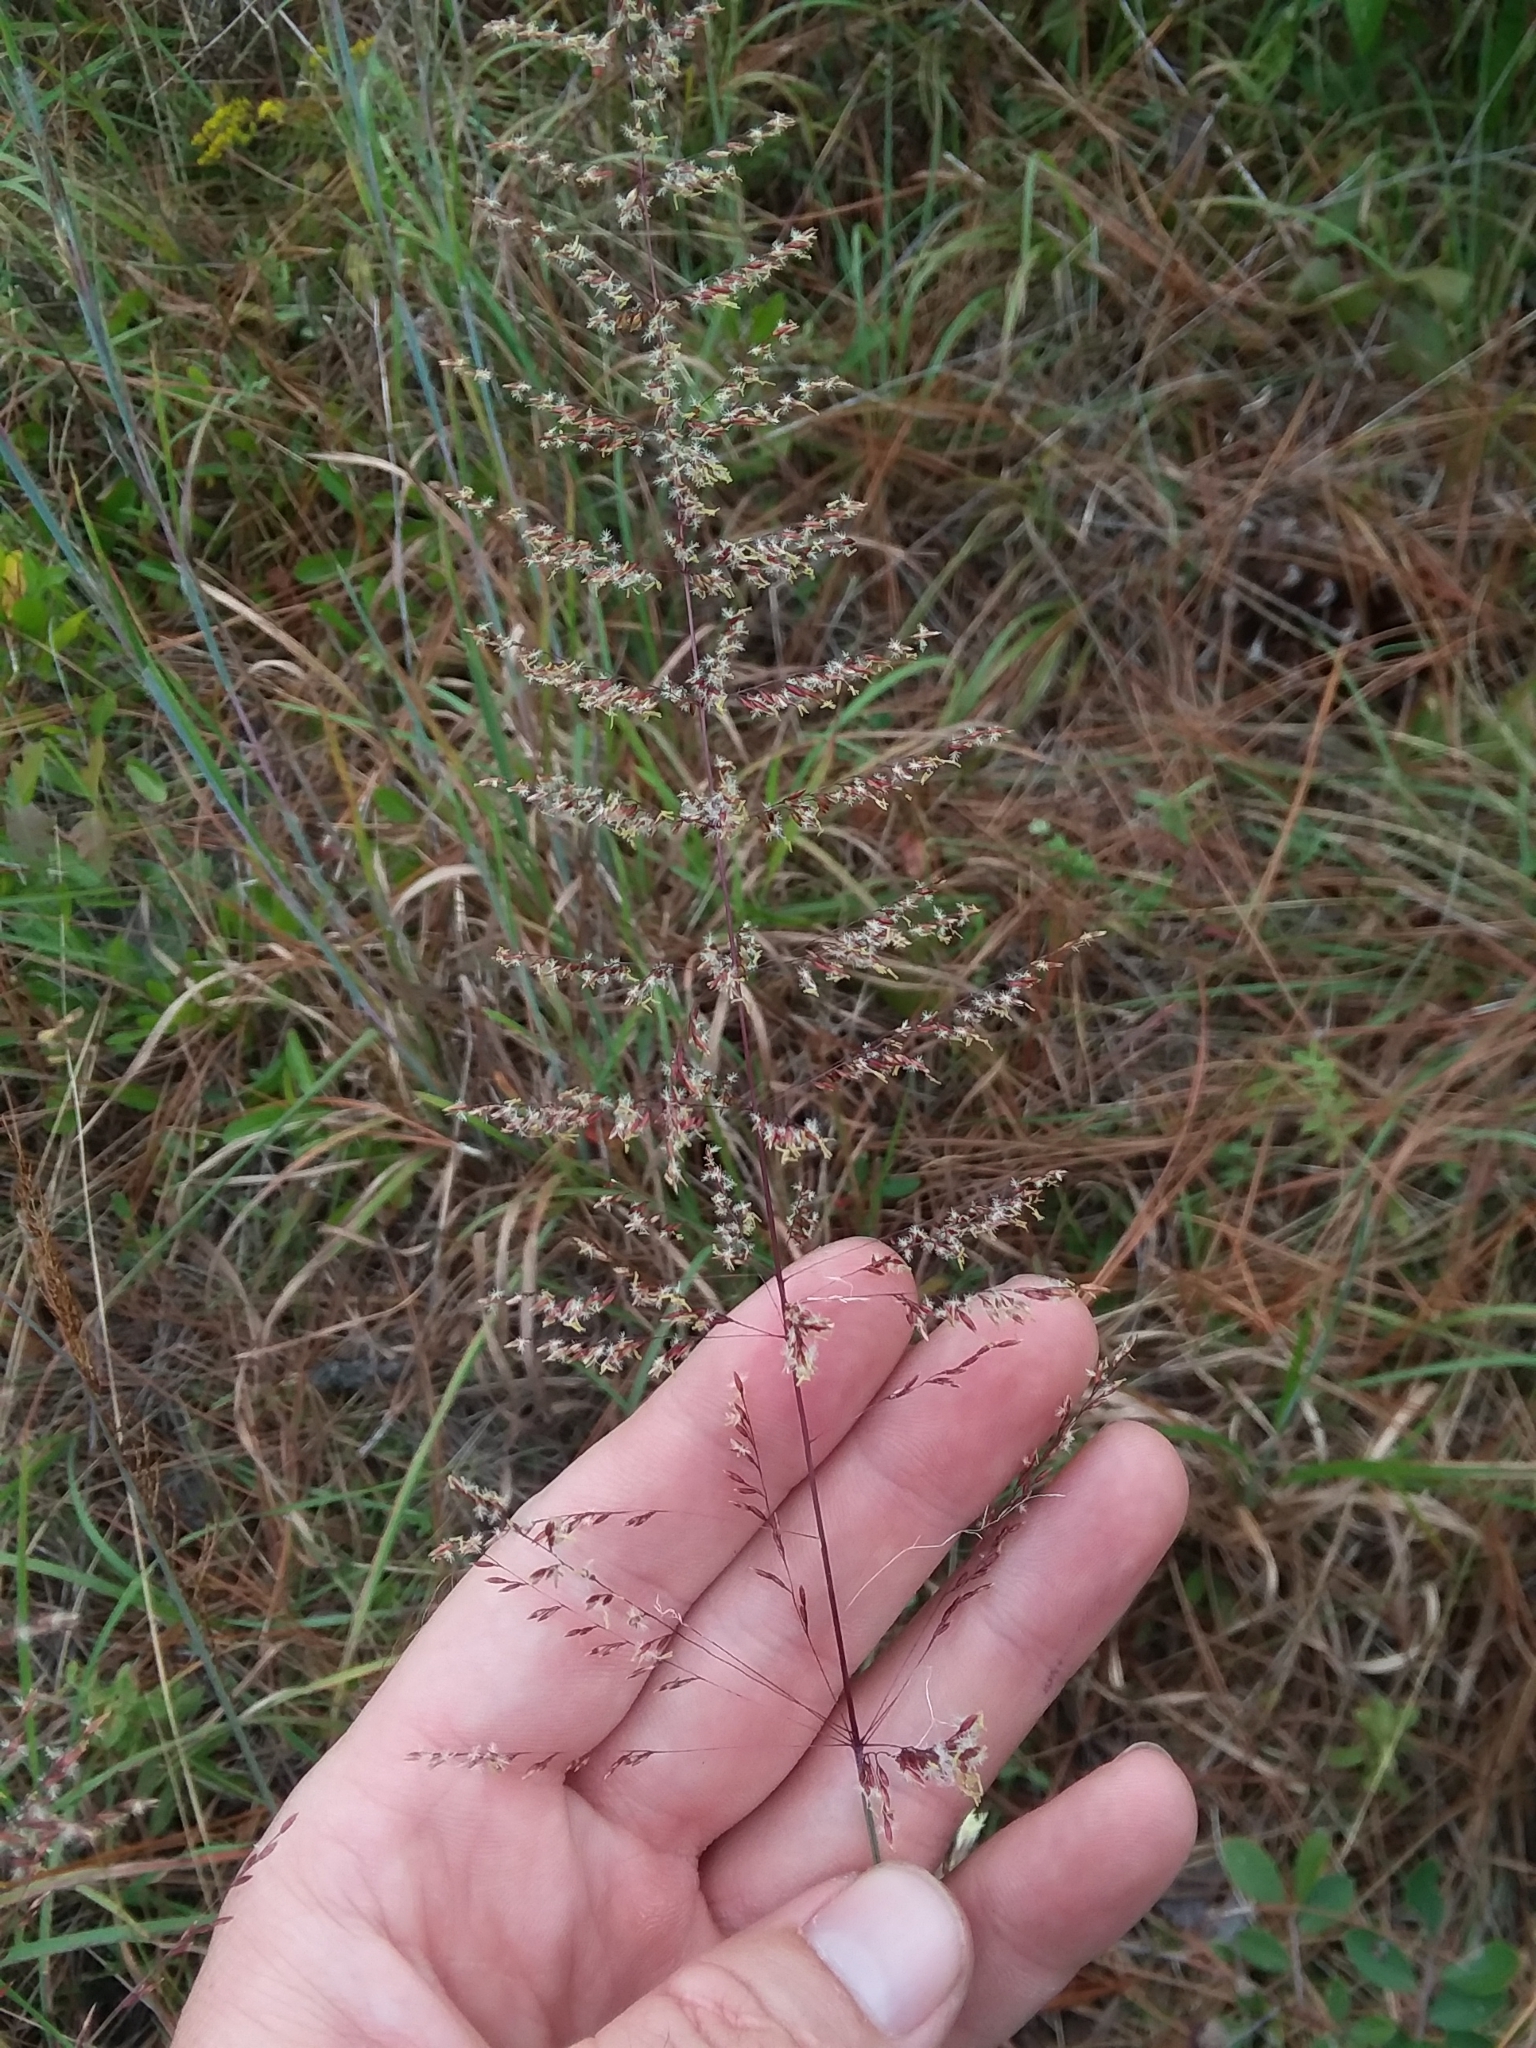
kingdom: Plantae
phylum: Tracheophyta
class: Liliopsida
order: Poales
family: Poaceae
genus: Sporobolus
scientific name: Sporobolus junceus
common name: Lizard grass
